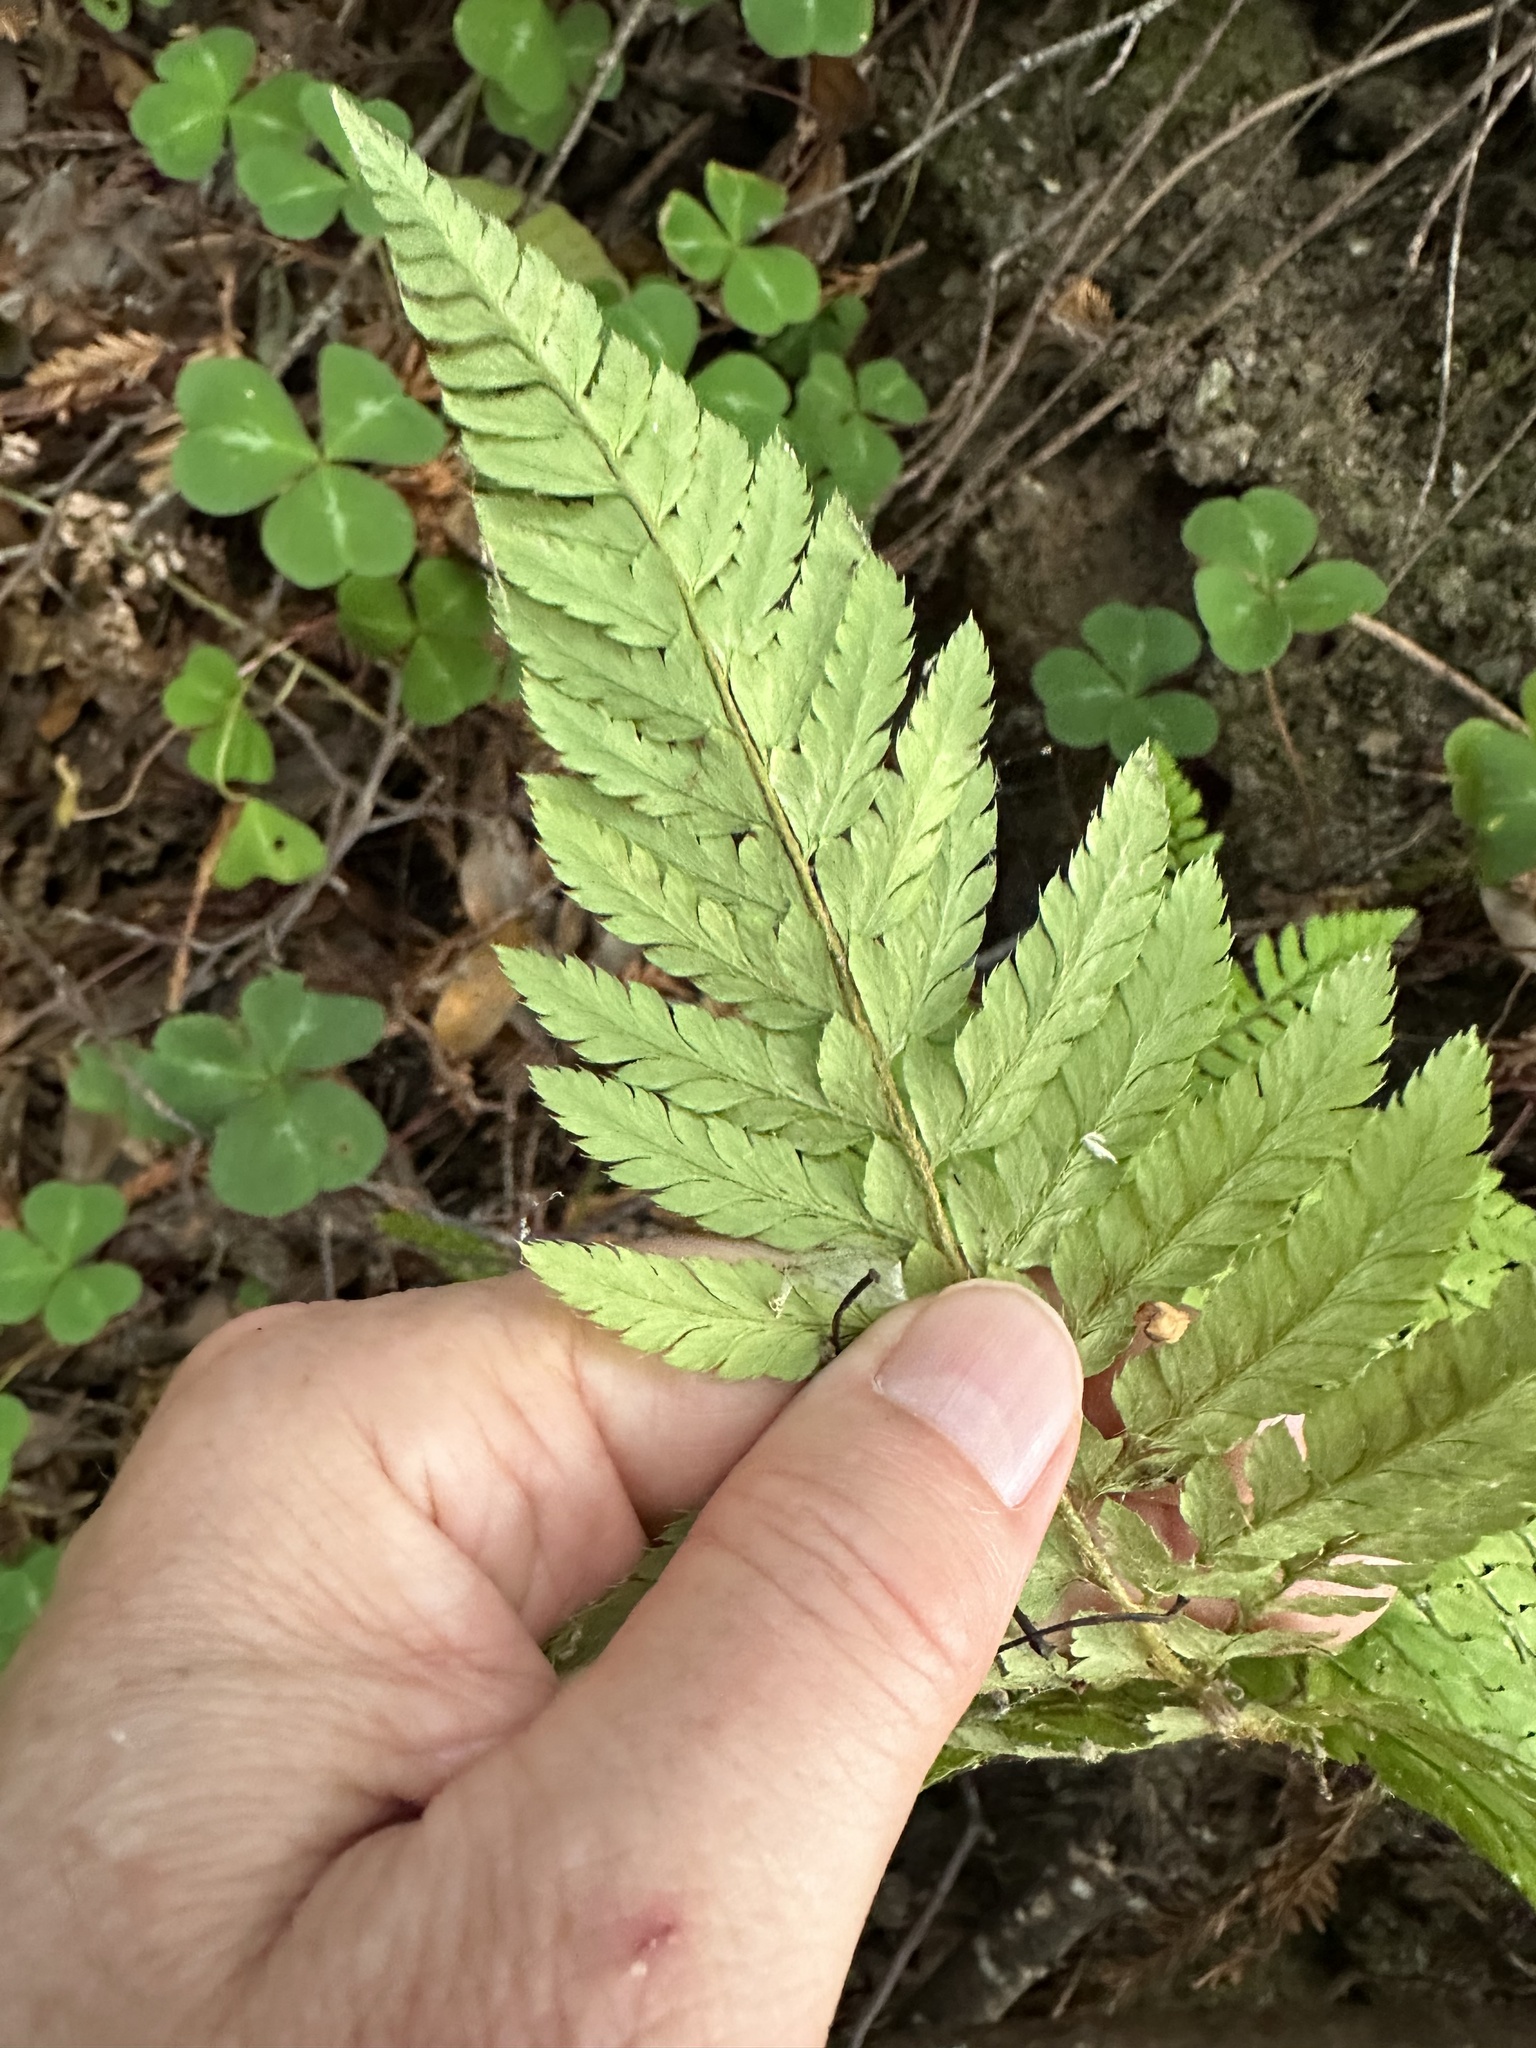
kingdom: Plantae
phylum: Tracheophyta
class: Polypodiopsida
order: Polypodiales
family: Dryopteridaceae
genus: Polystichum
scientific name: Polystichum dudleyi
